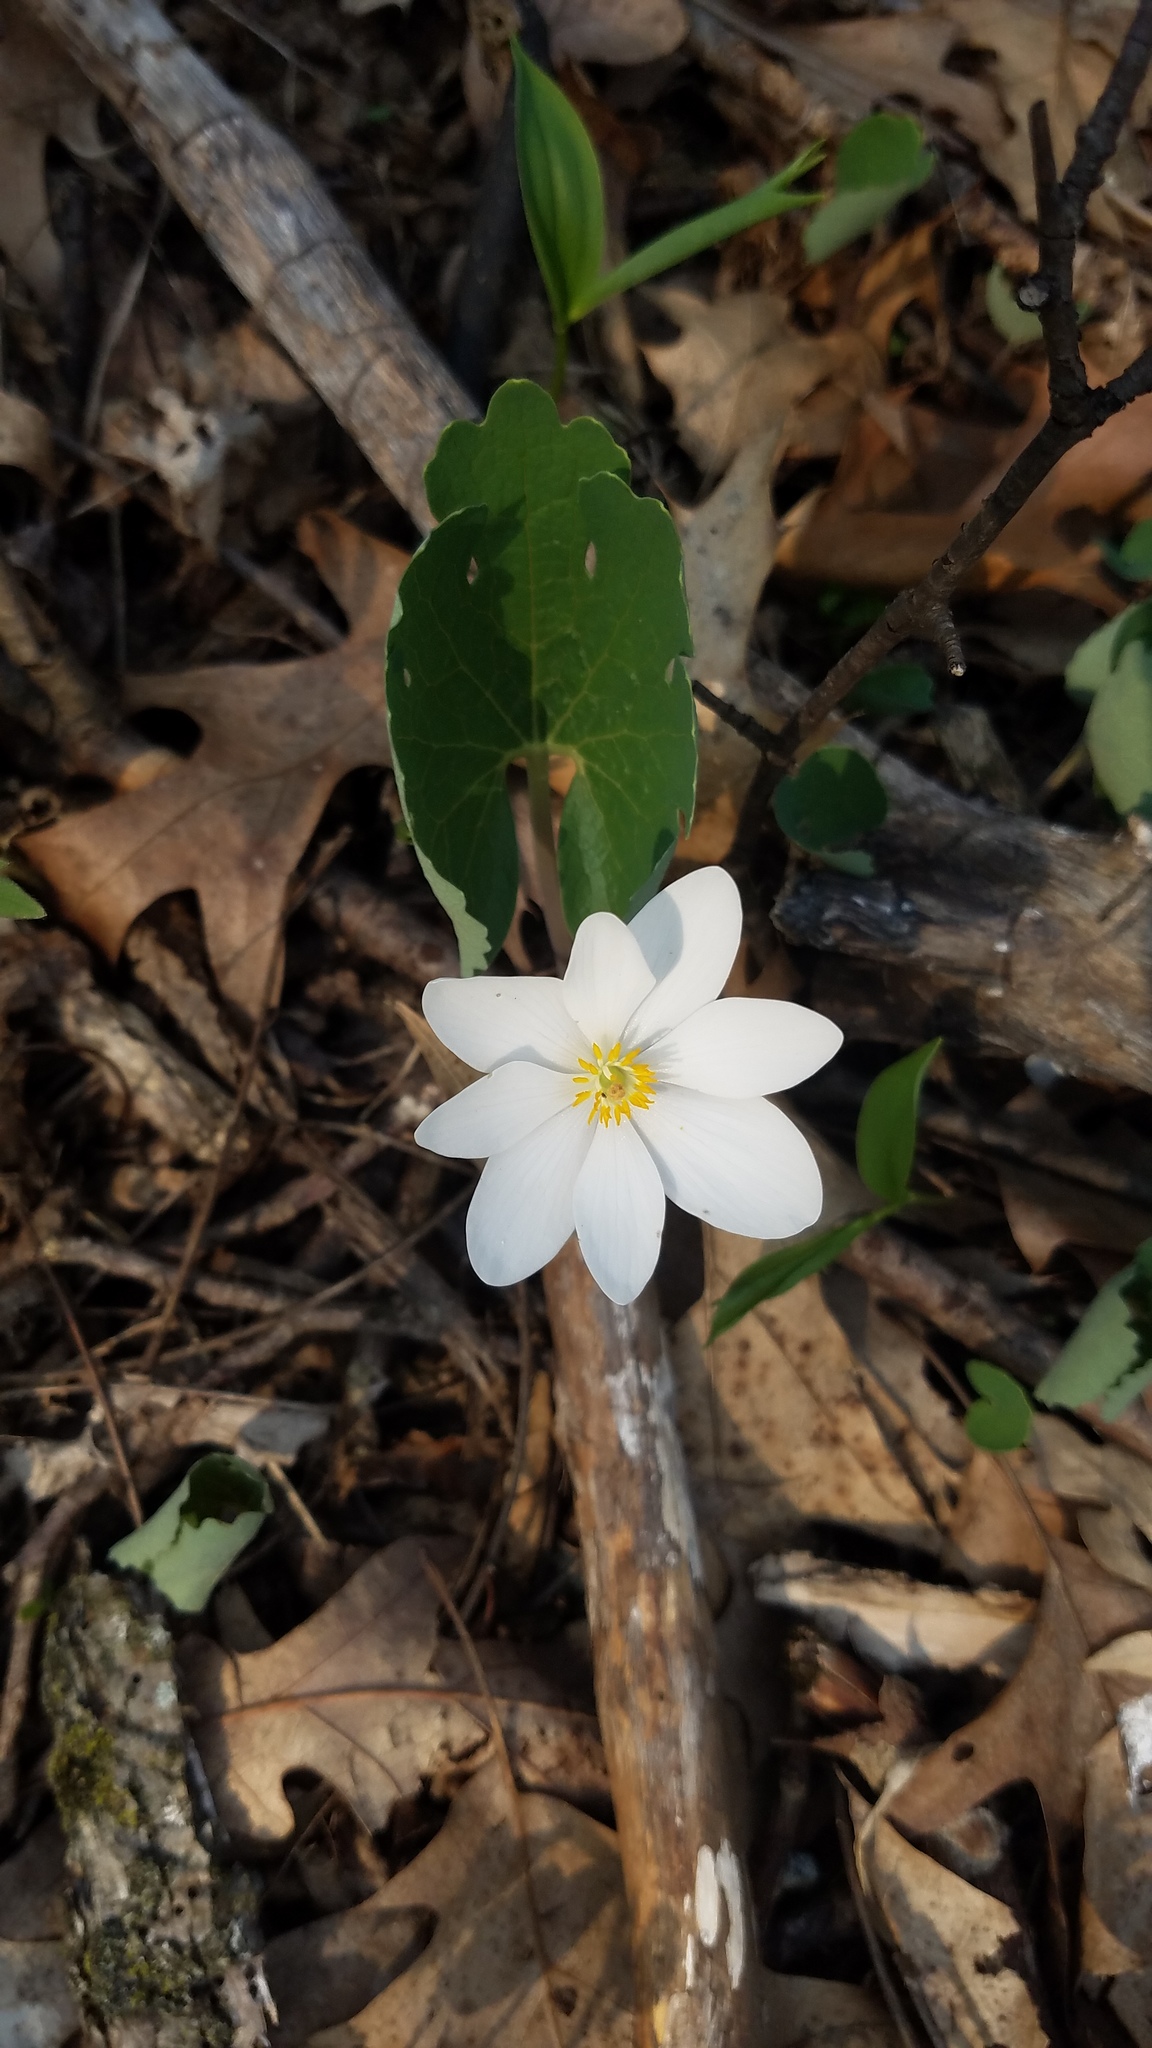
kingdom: Plantae
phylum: Tracheophyta
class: Magnoliopsida
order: Ranunculales
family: Papaveraceae
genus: Sanguinaria
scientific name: Sanguinaria canadensis
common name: Bloodroot
